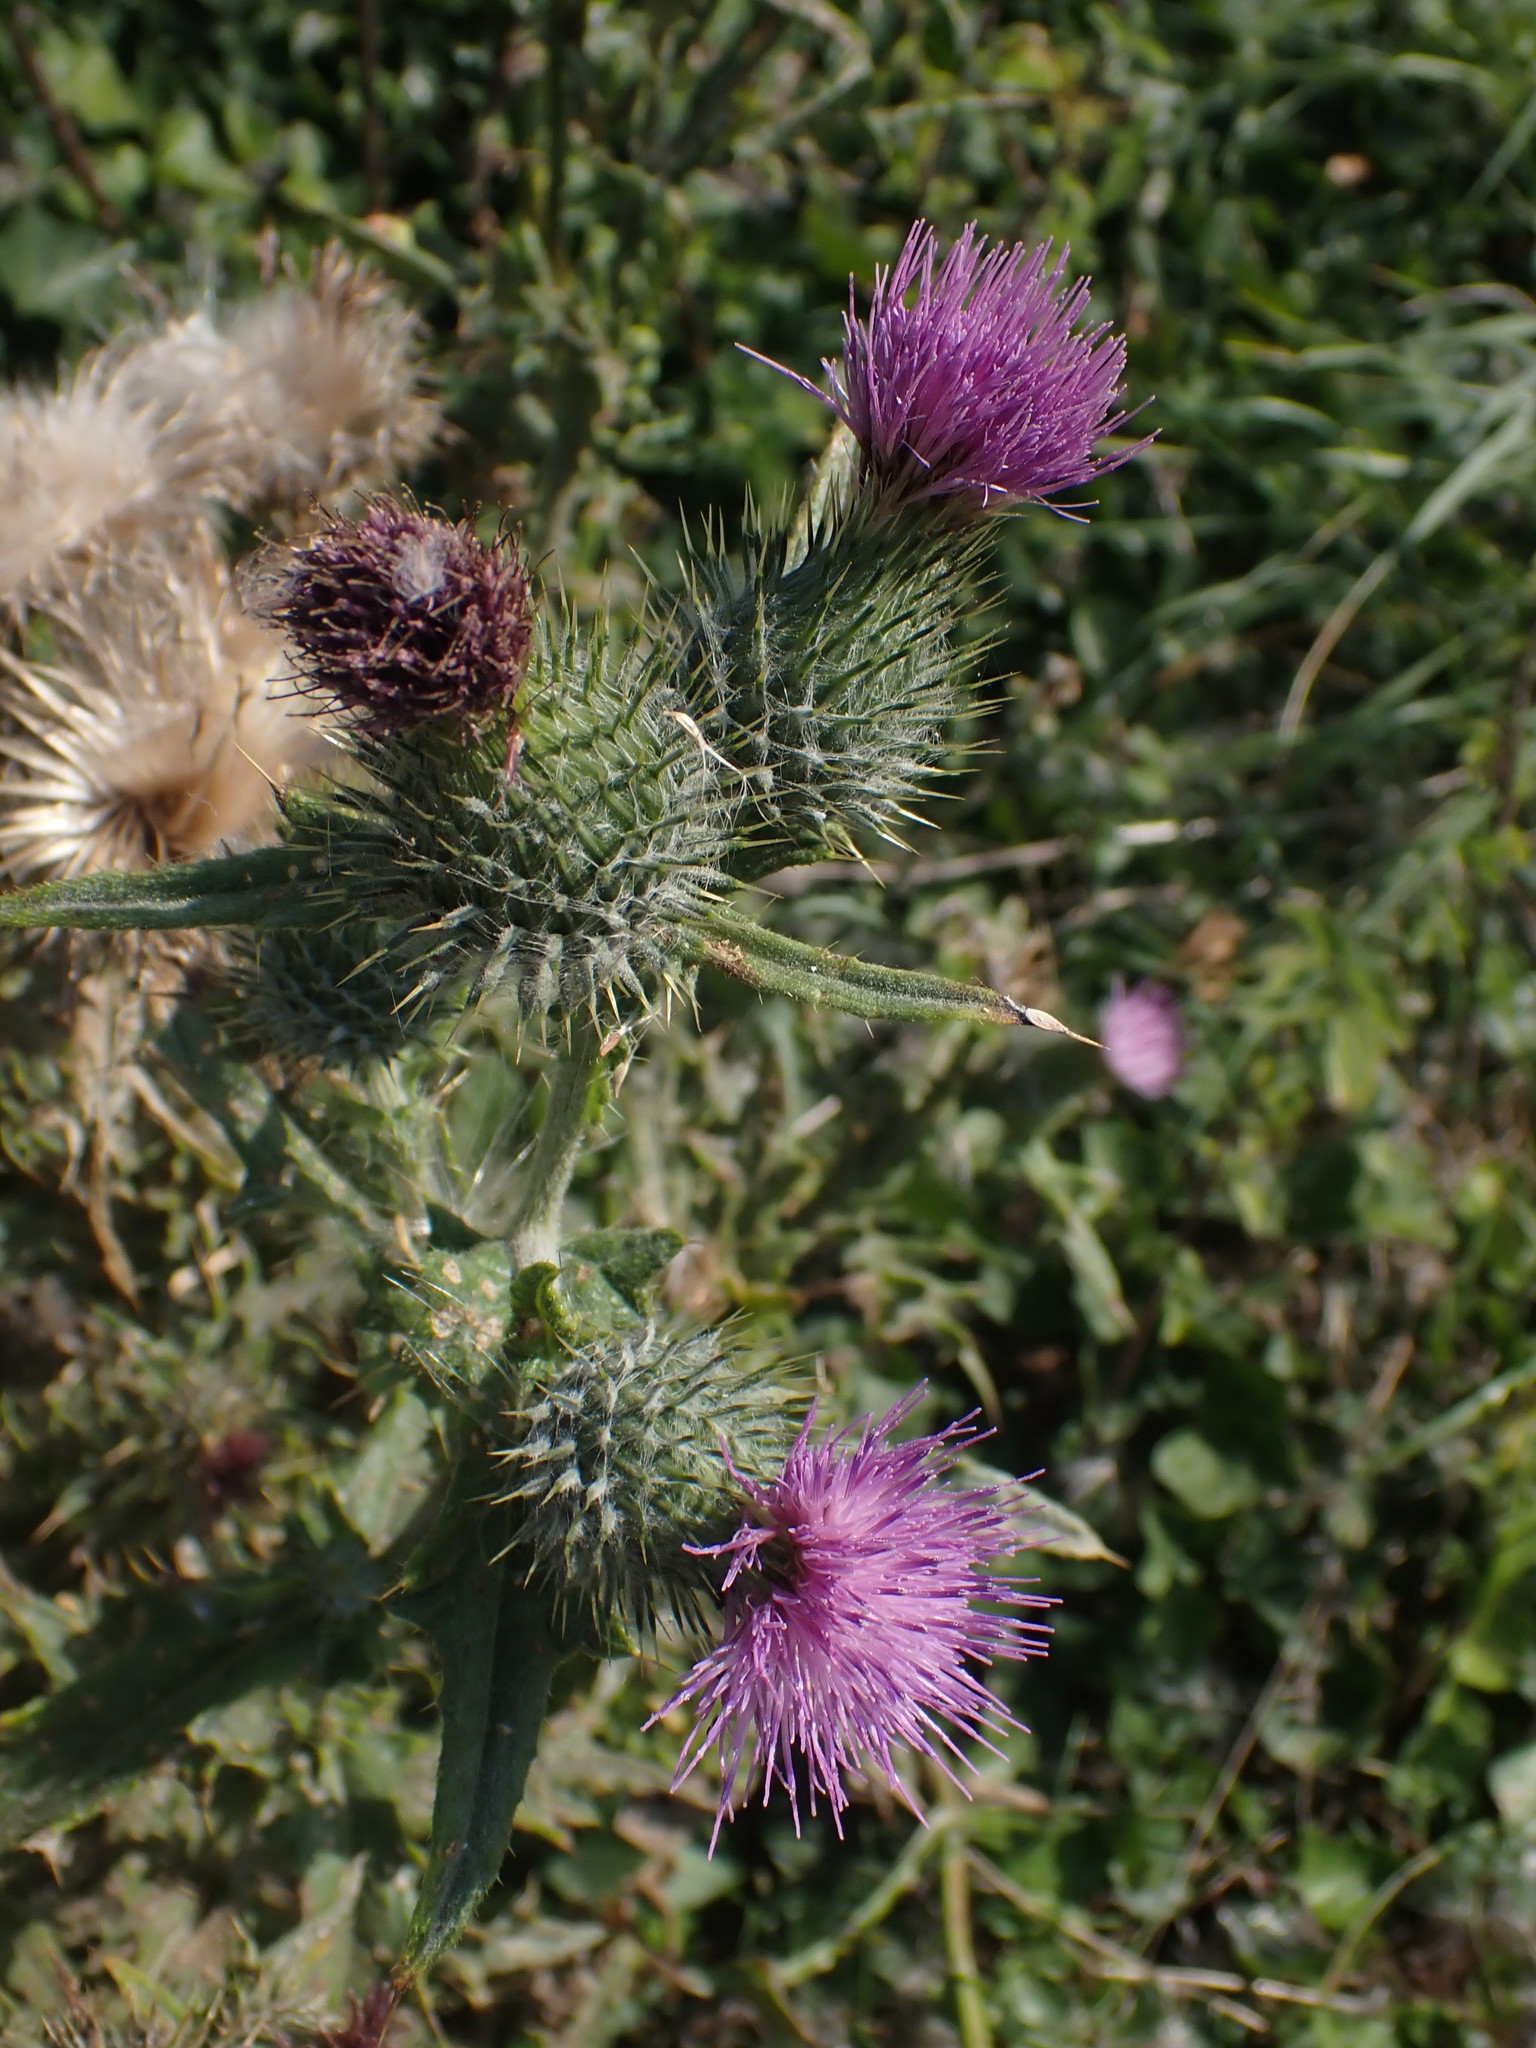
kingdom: Plantae
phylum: Tracheophyta
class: Magnoliopsida
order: Asterales
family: Asteraceae
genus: Cirsium
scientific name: Cirsium vulgare
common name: Bull thistle
